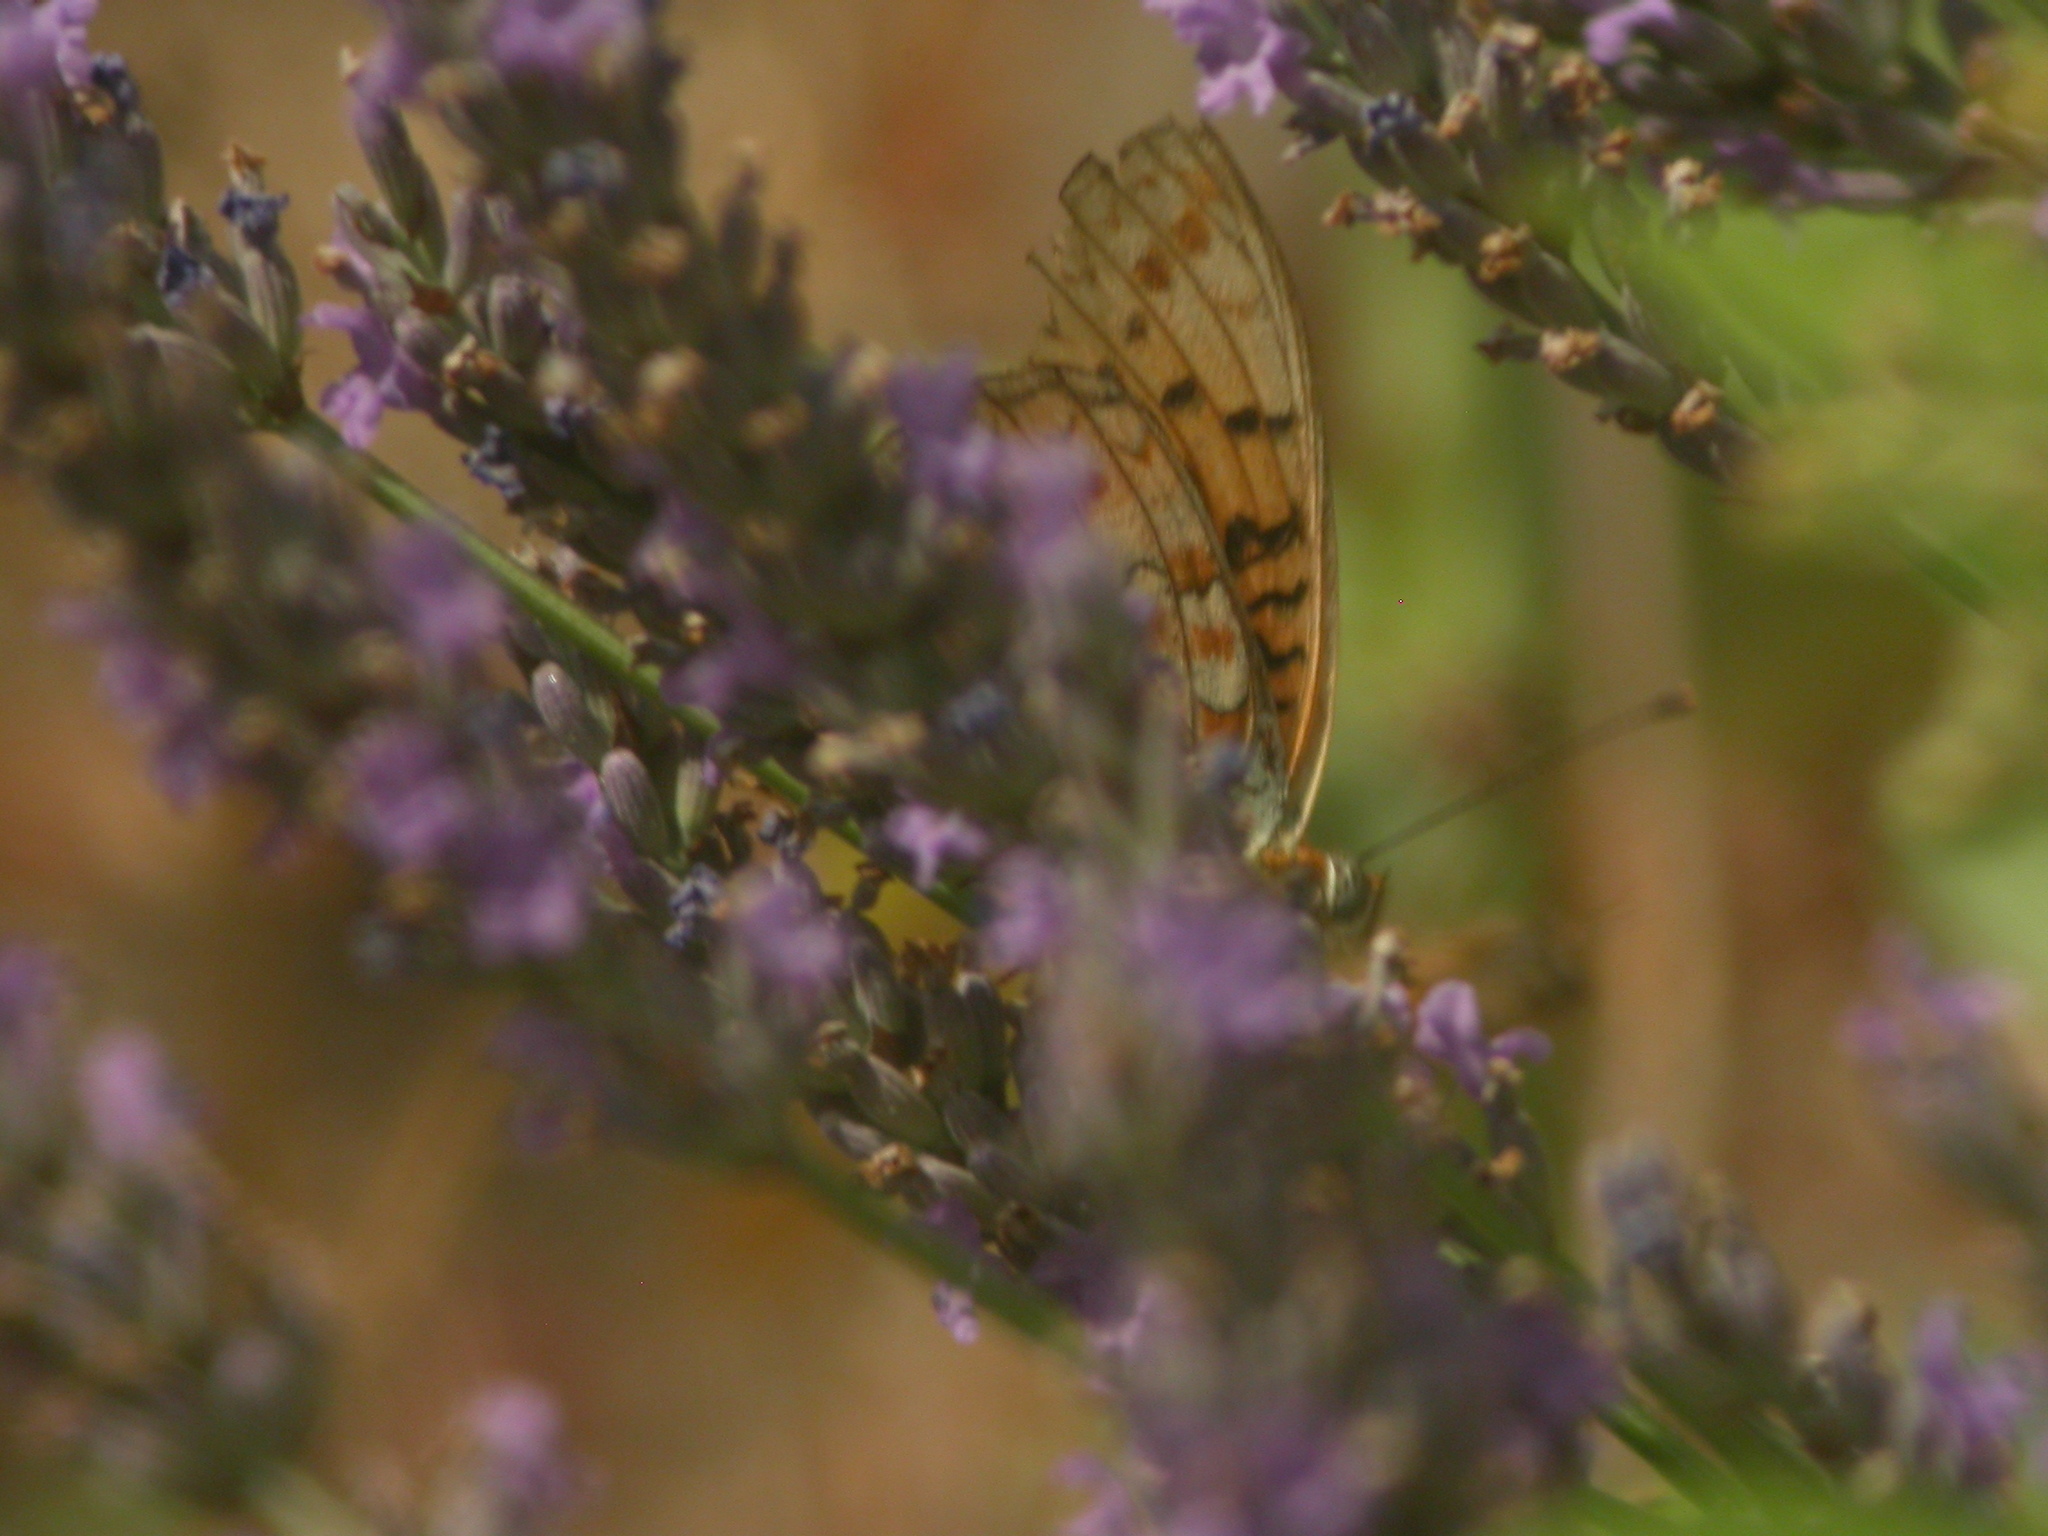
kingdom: Animalia
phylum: Arthropoda
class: Insecta
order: Lepidoptera
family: Nymphalidae
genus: Fabriciana
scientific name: Fabriciana niobe
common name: Niobe fritillary
